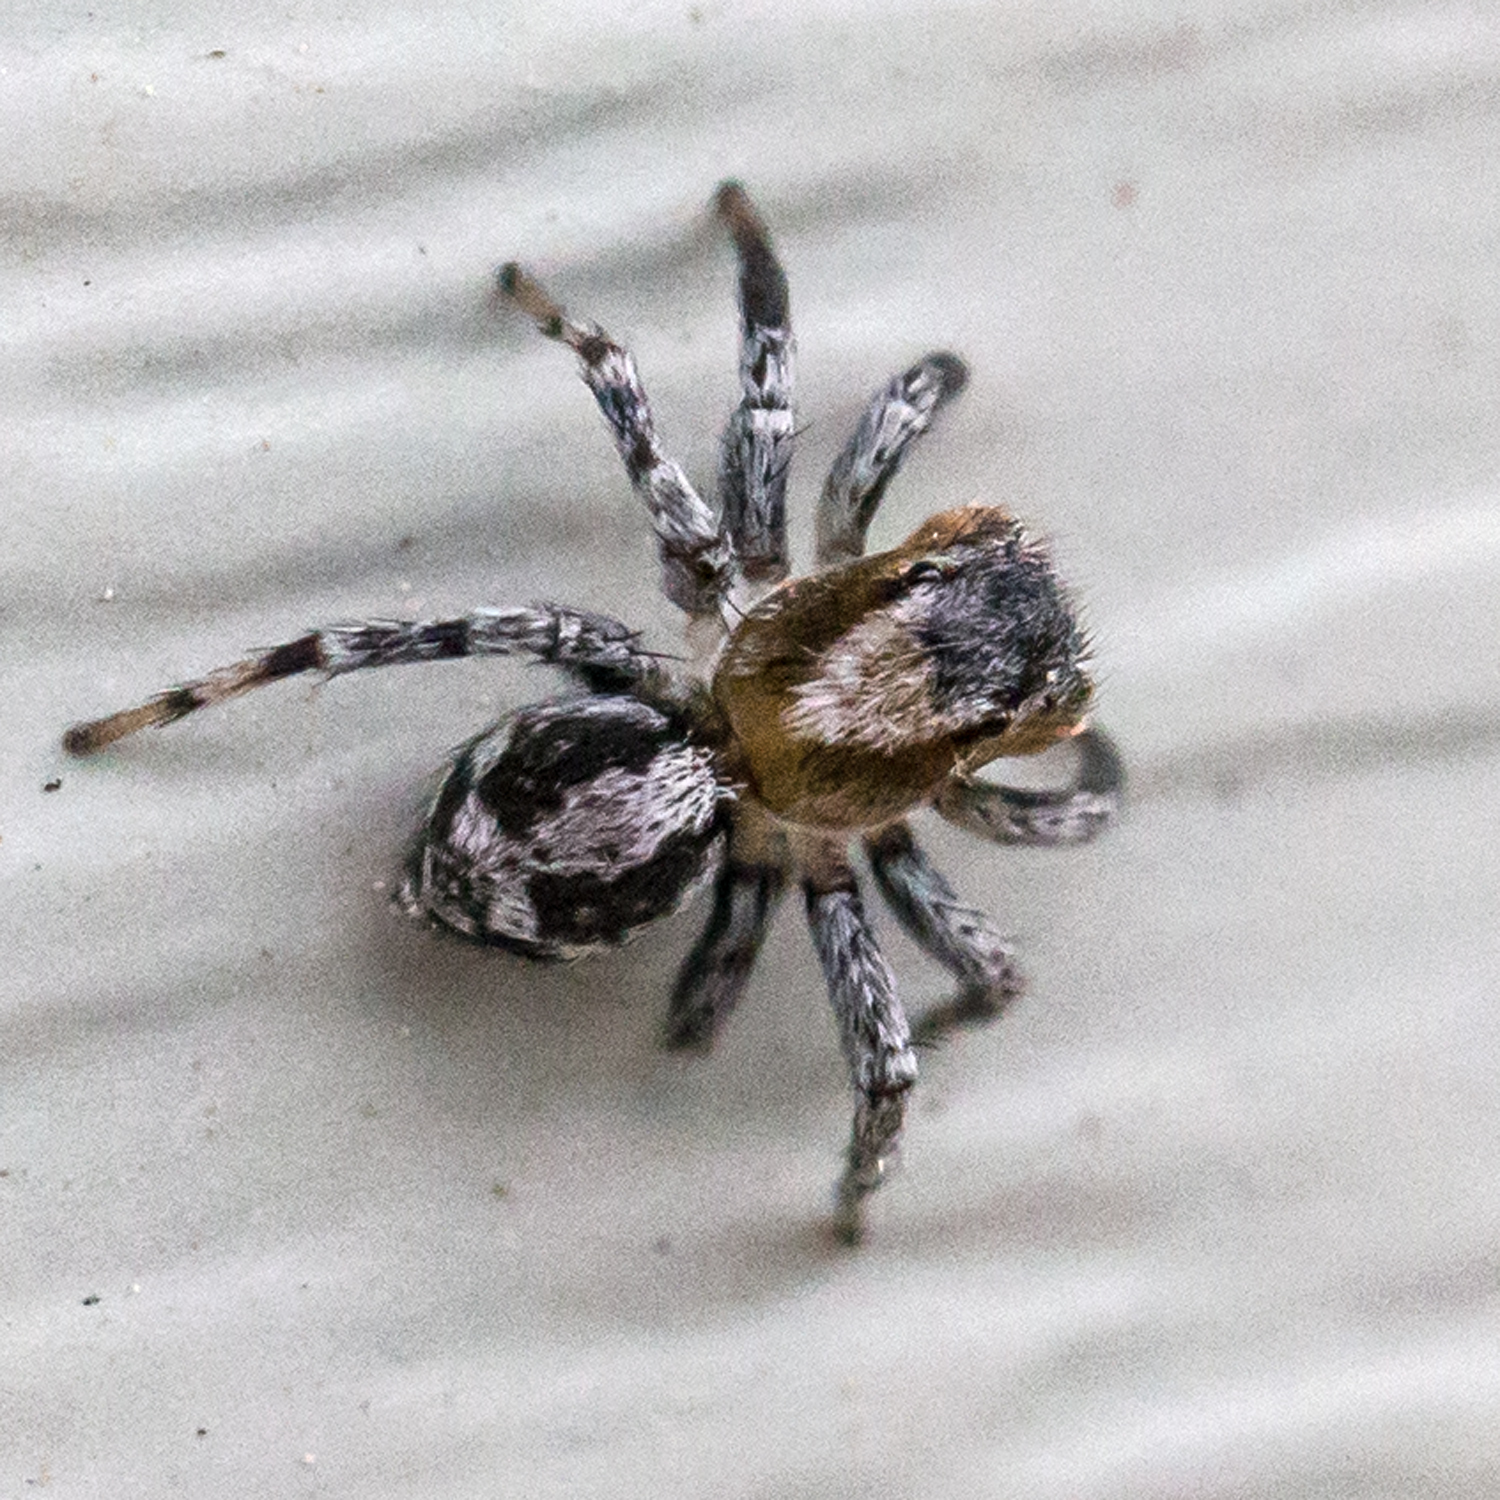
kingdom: Animalia
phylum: Arthropoda
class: Arachnida
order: Araneae
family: Salticidae
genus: Naphrys
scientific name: Naphrys pulex
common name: Flea jumping spider
